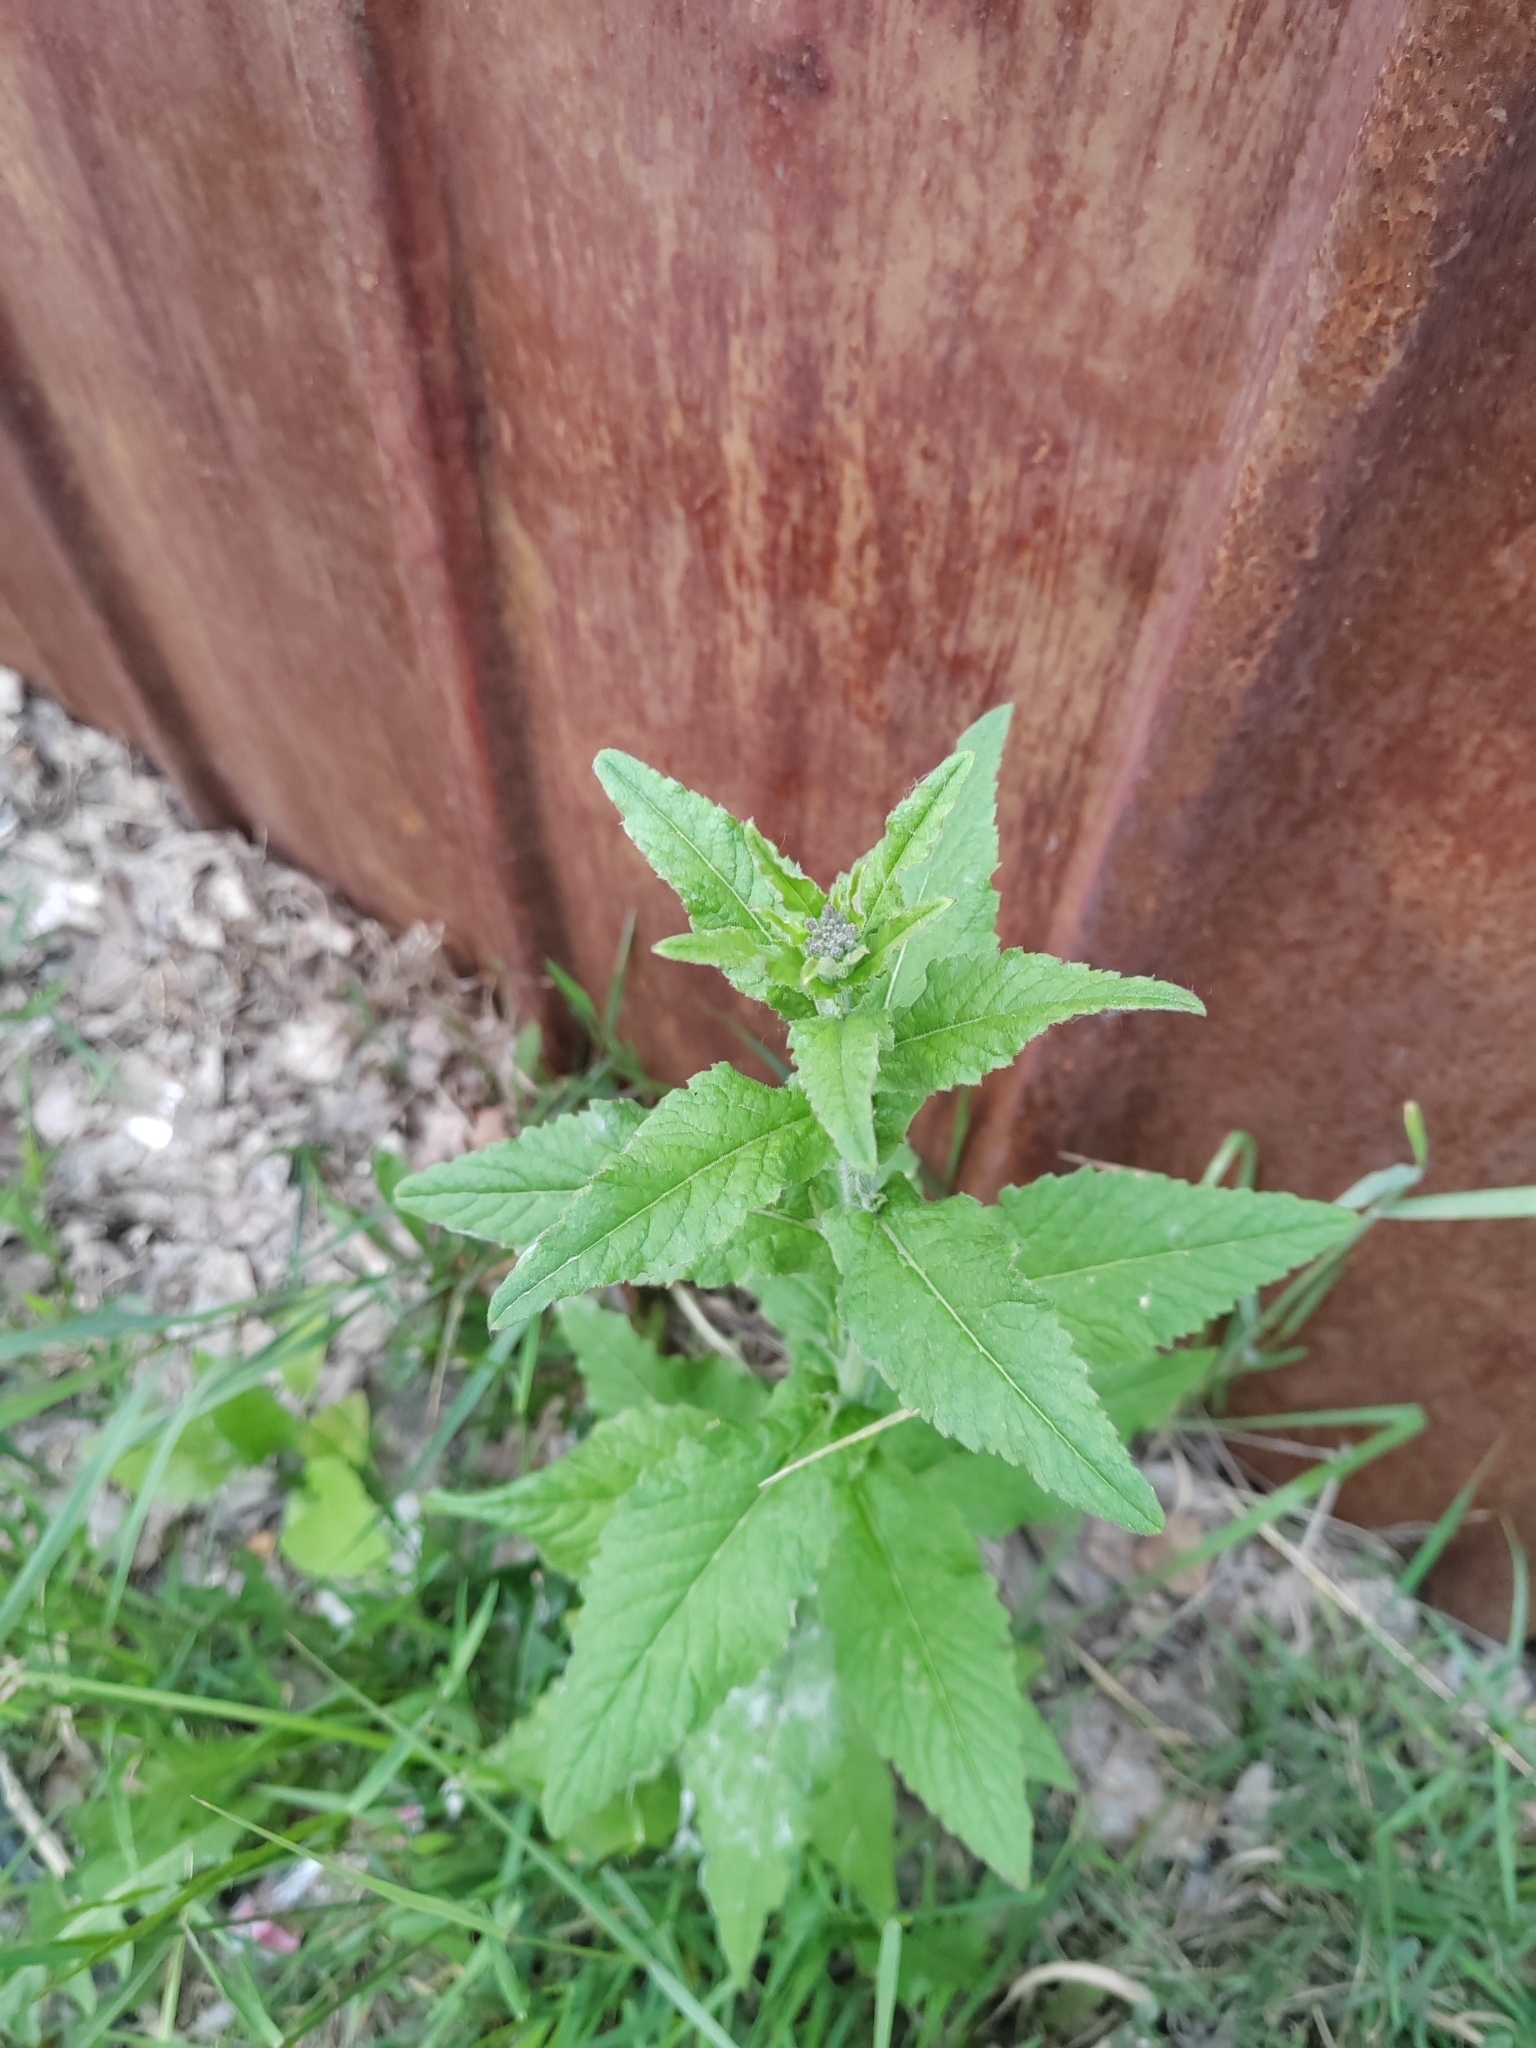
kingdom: Plantae
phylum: Tracheophyta
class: Magnoliopsida
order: Brassicales
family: Brassicaceae
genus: Catolobus
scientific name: Catolobus pendulus
